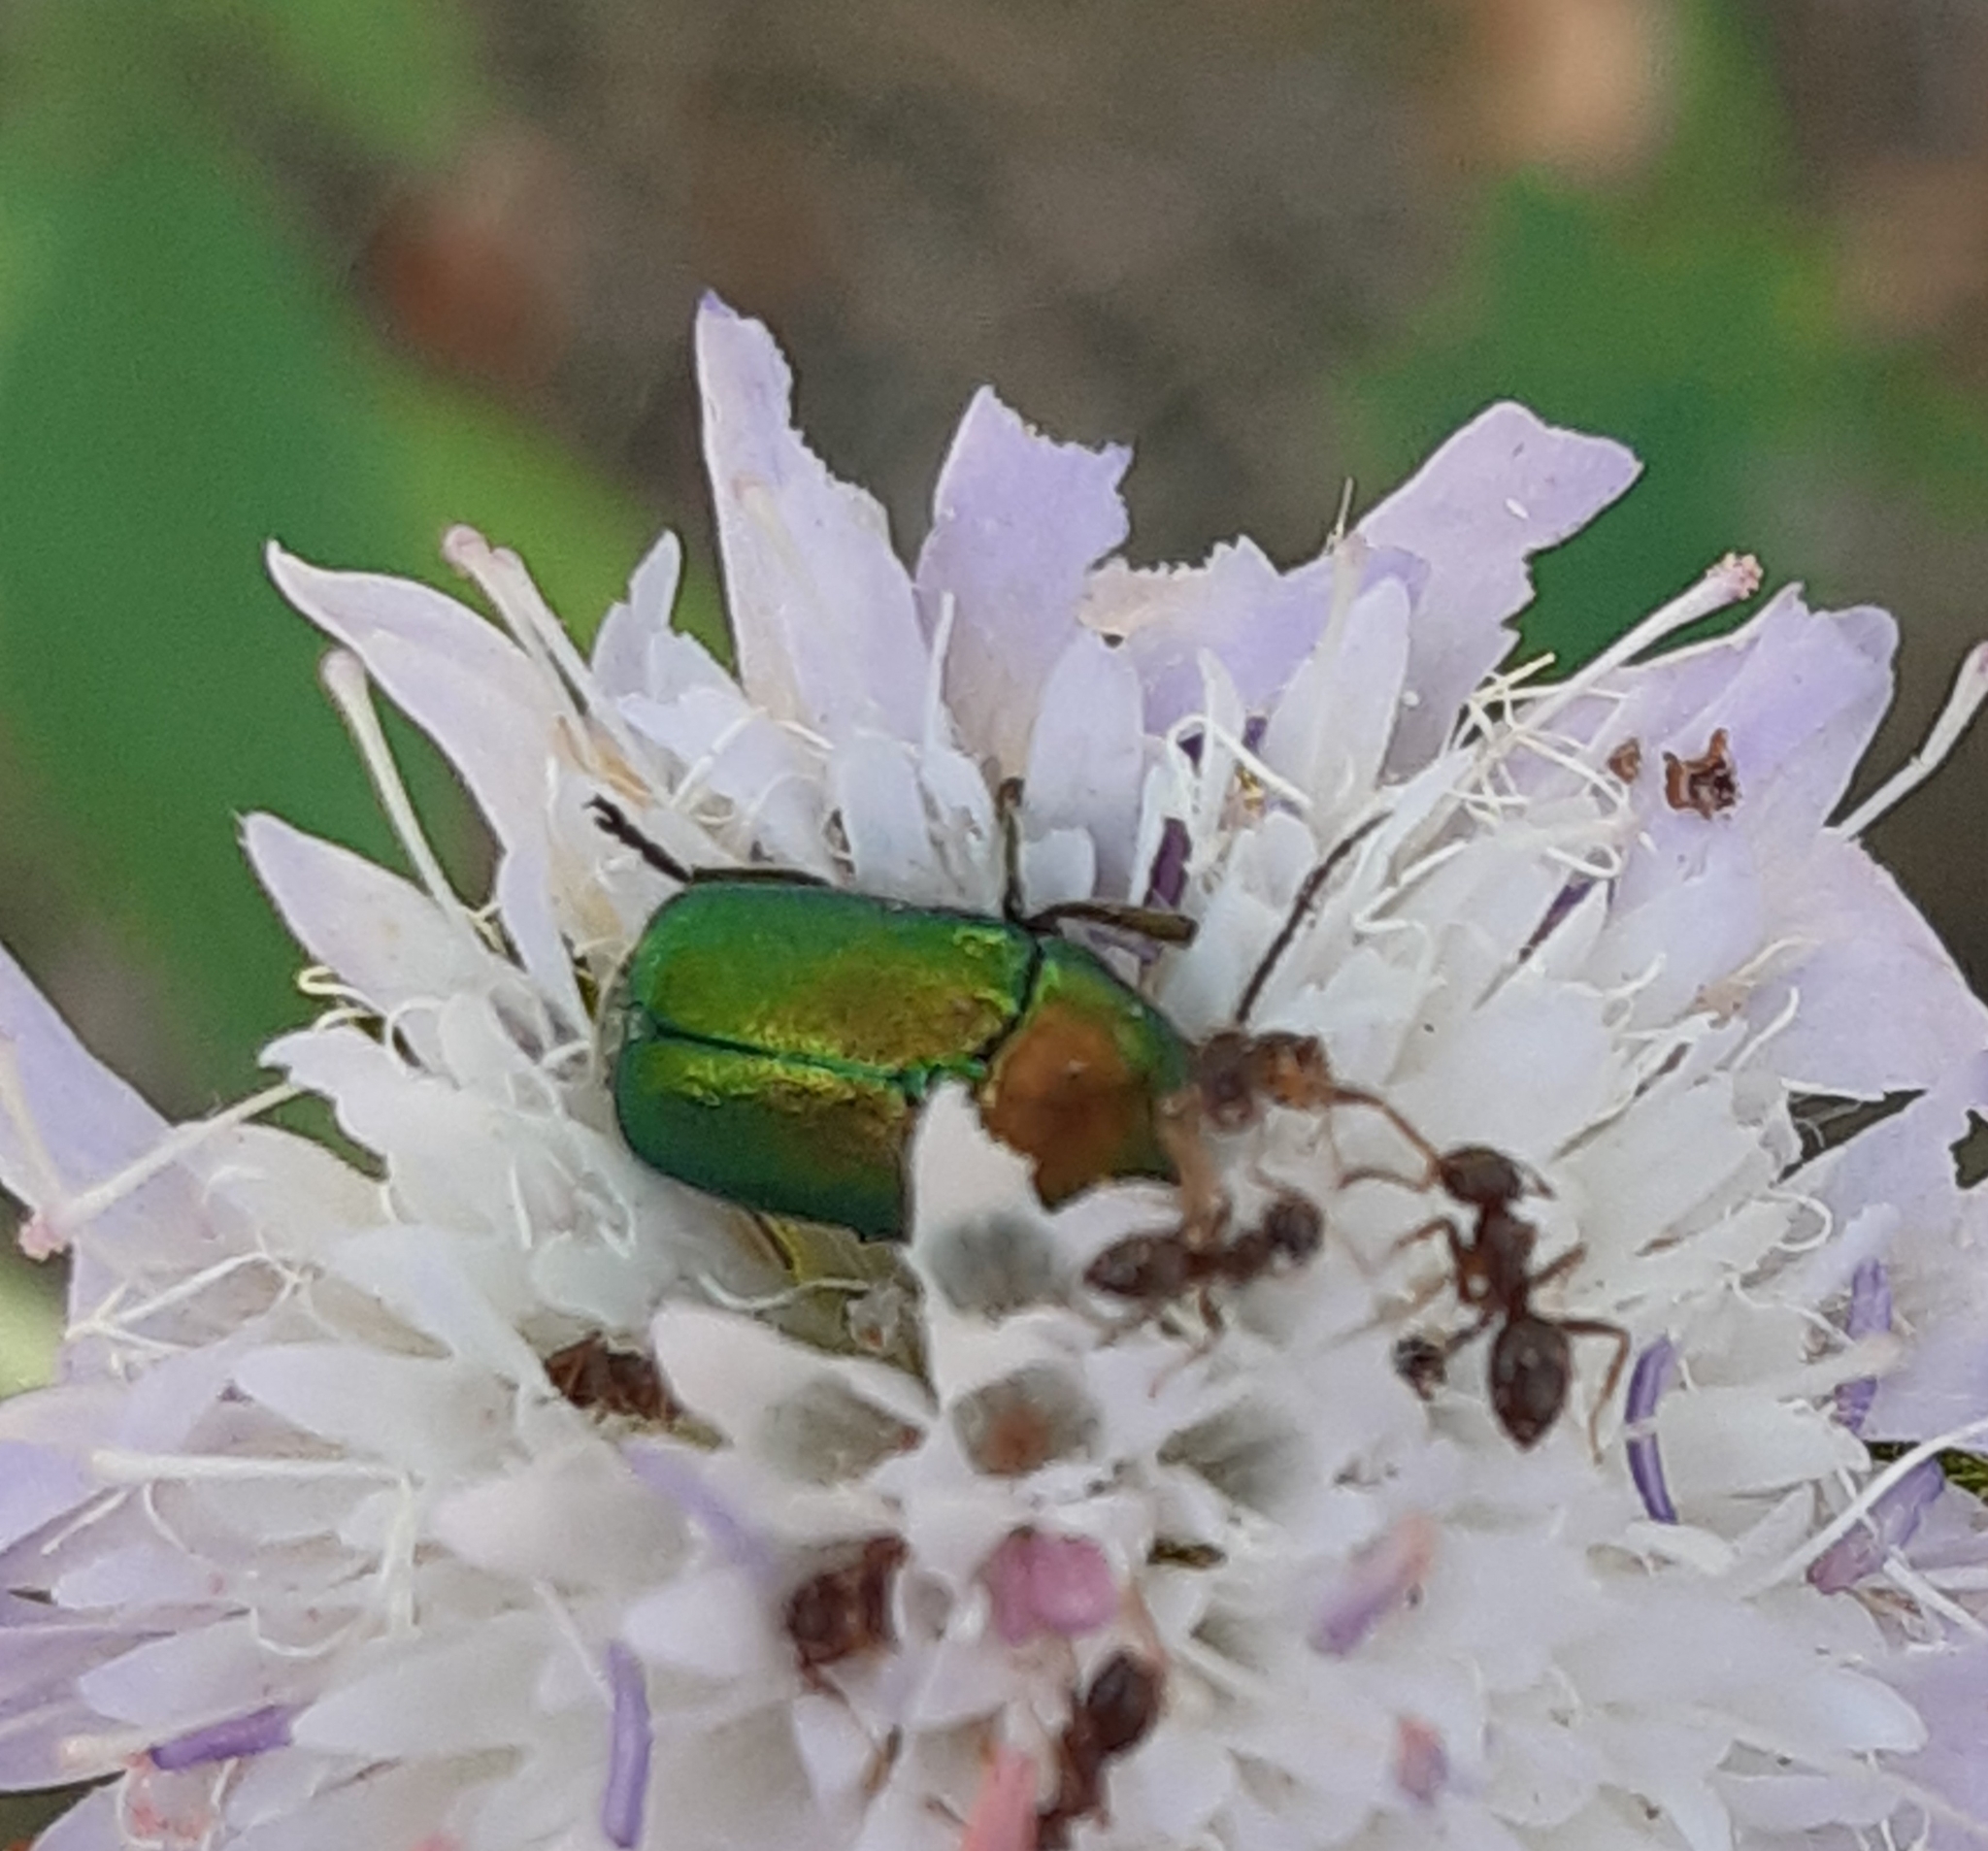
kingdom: Animalia
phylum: Arthropoda
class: Insecta
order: Coleoptera
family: Chrysomelidae
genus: Cryptocephalus
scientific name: Cryptocephalus
